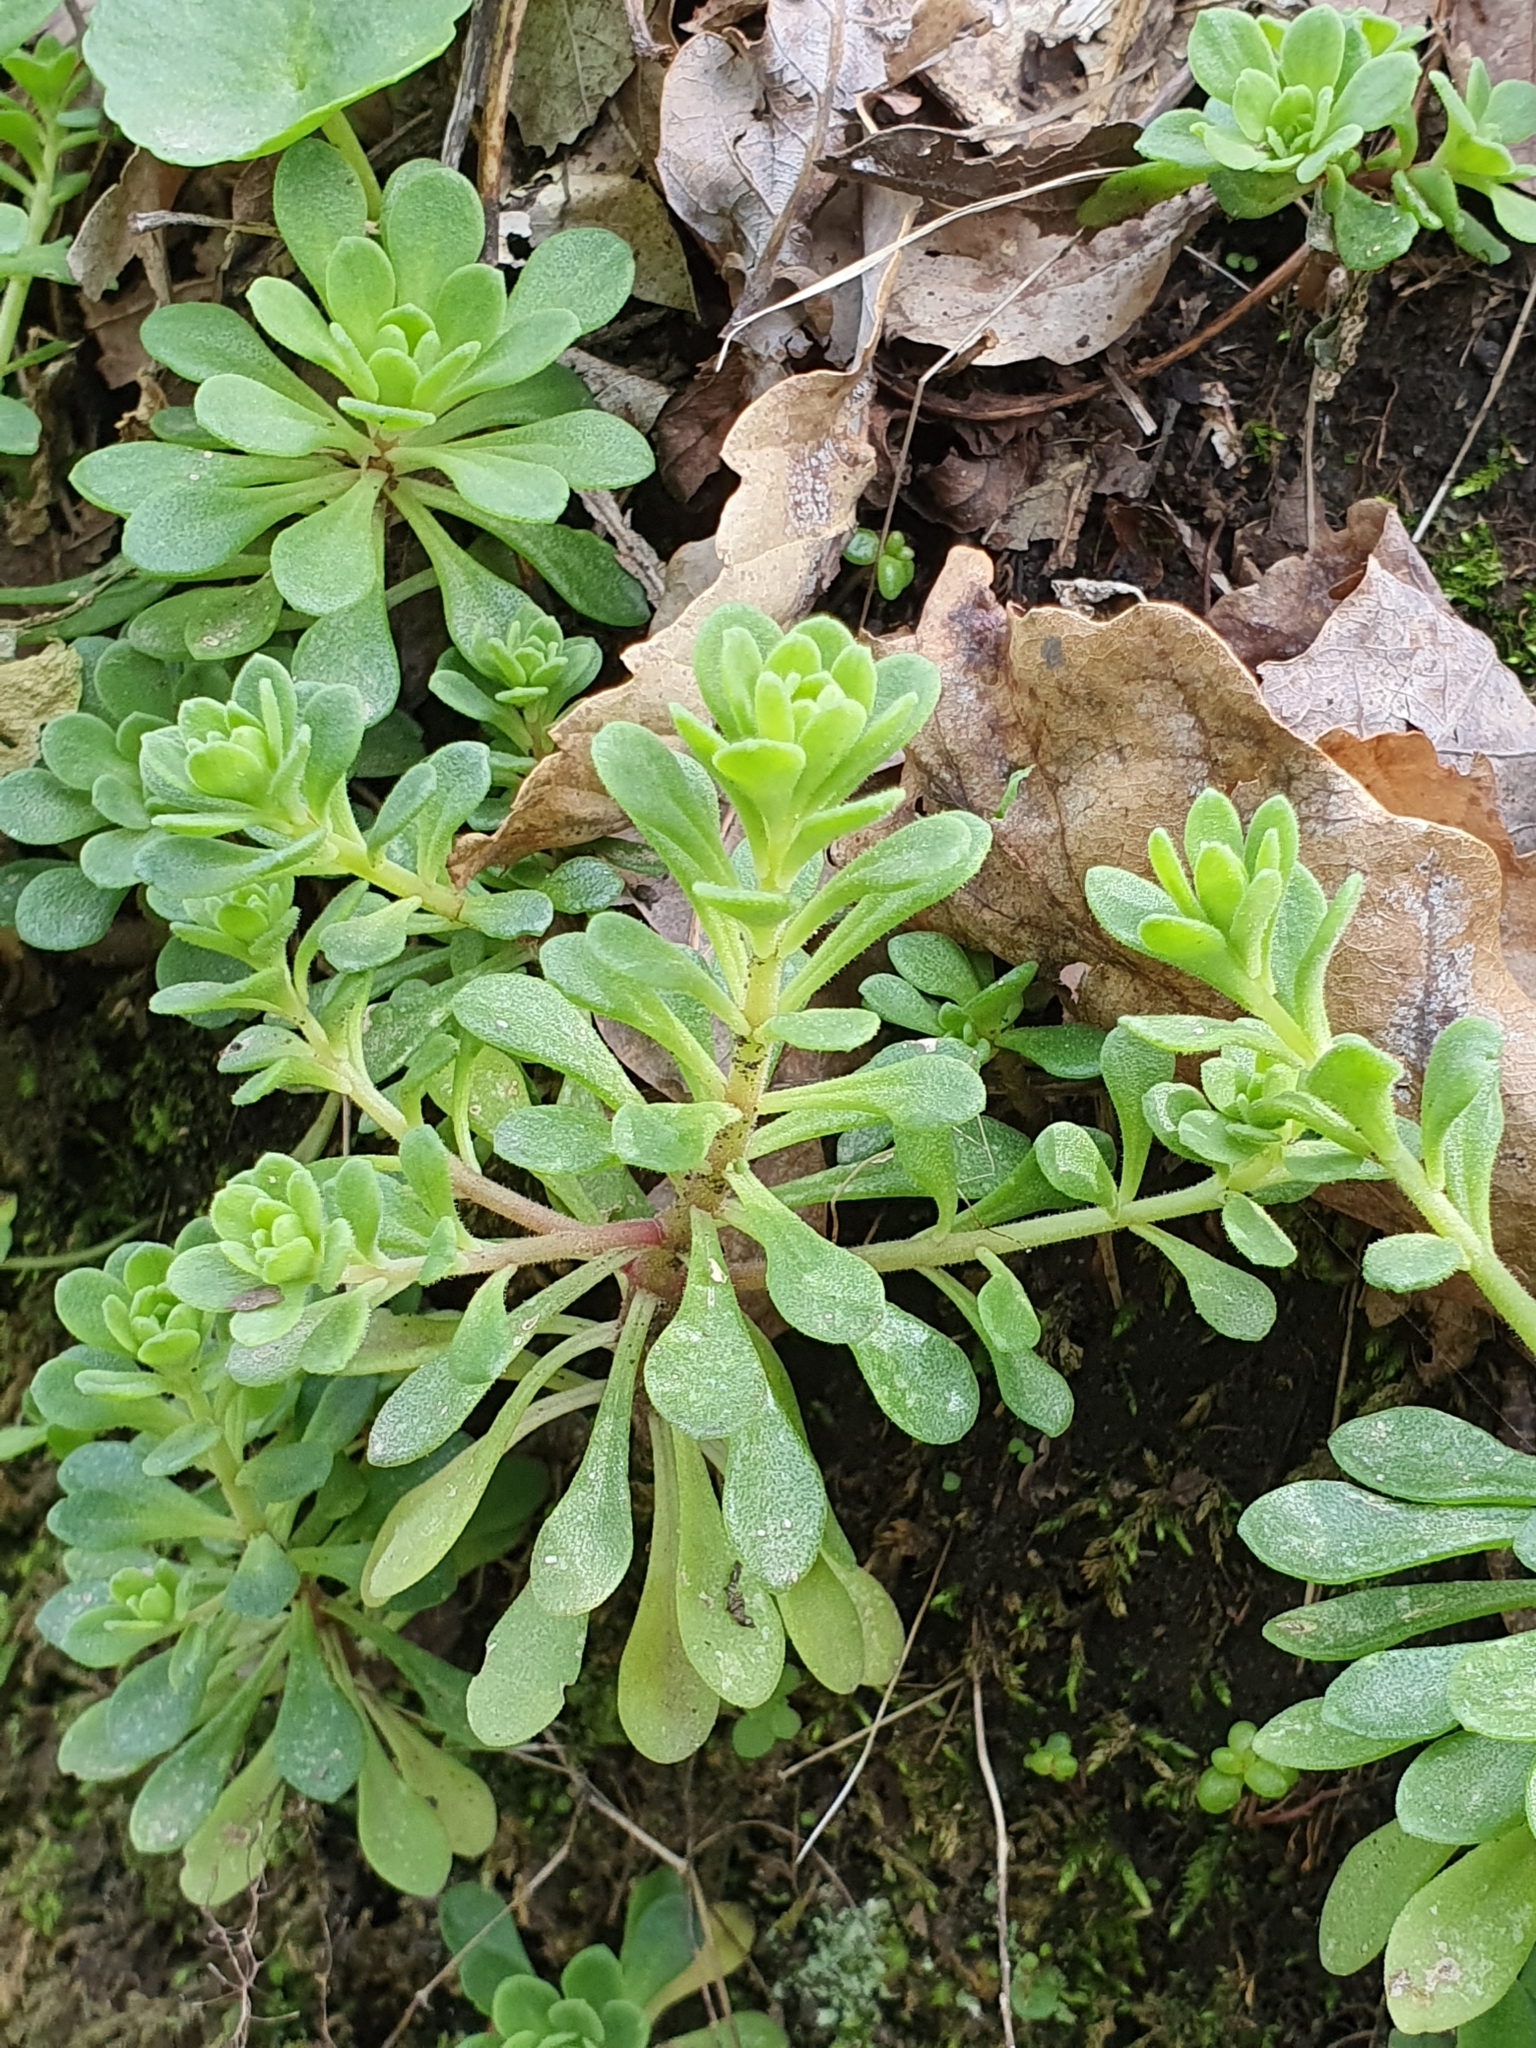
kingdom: Plantae
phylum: Tracheophyta
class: Magnoliopsida
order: Saxifragales
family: Crassulaceae
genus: Sedum
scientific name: Sedum cepaea
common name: Pink stonecrop
